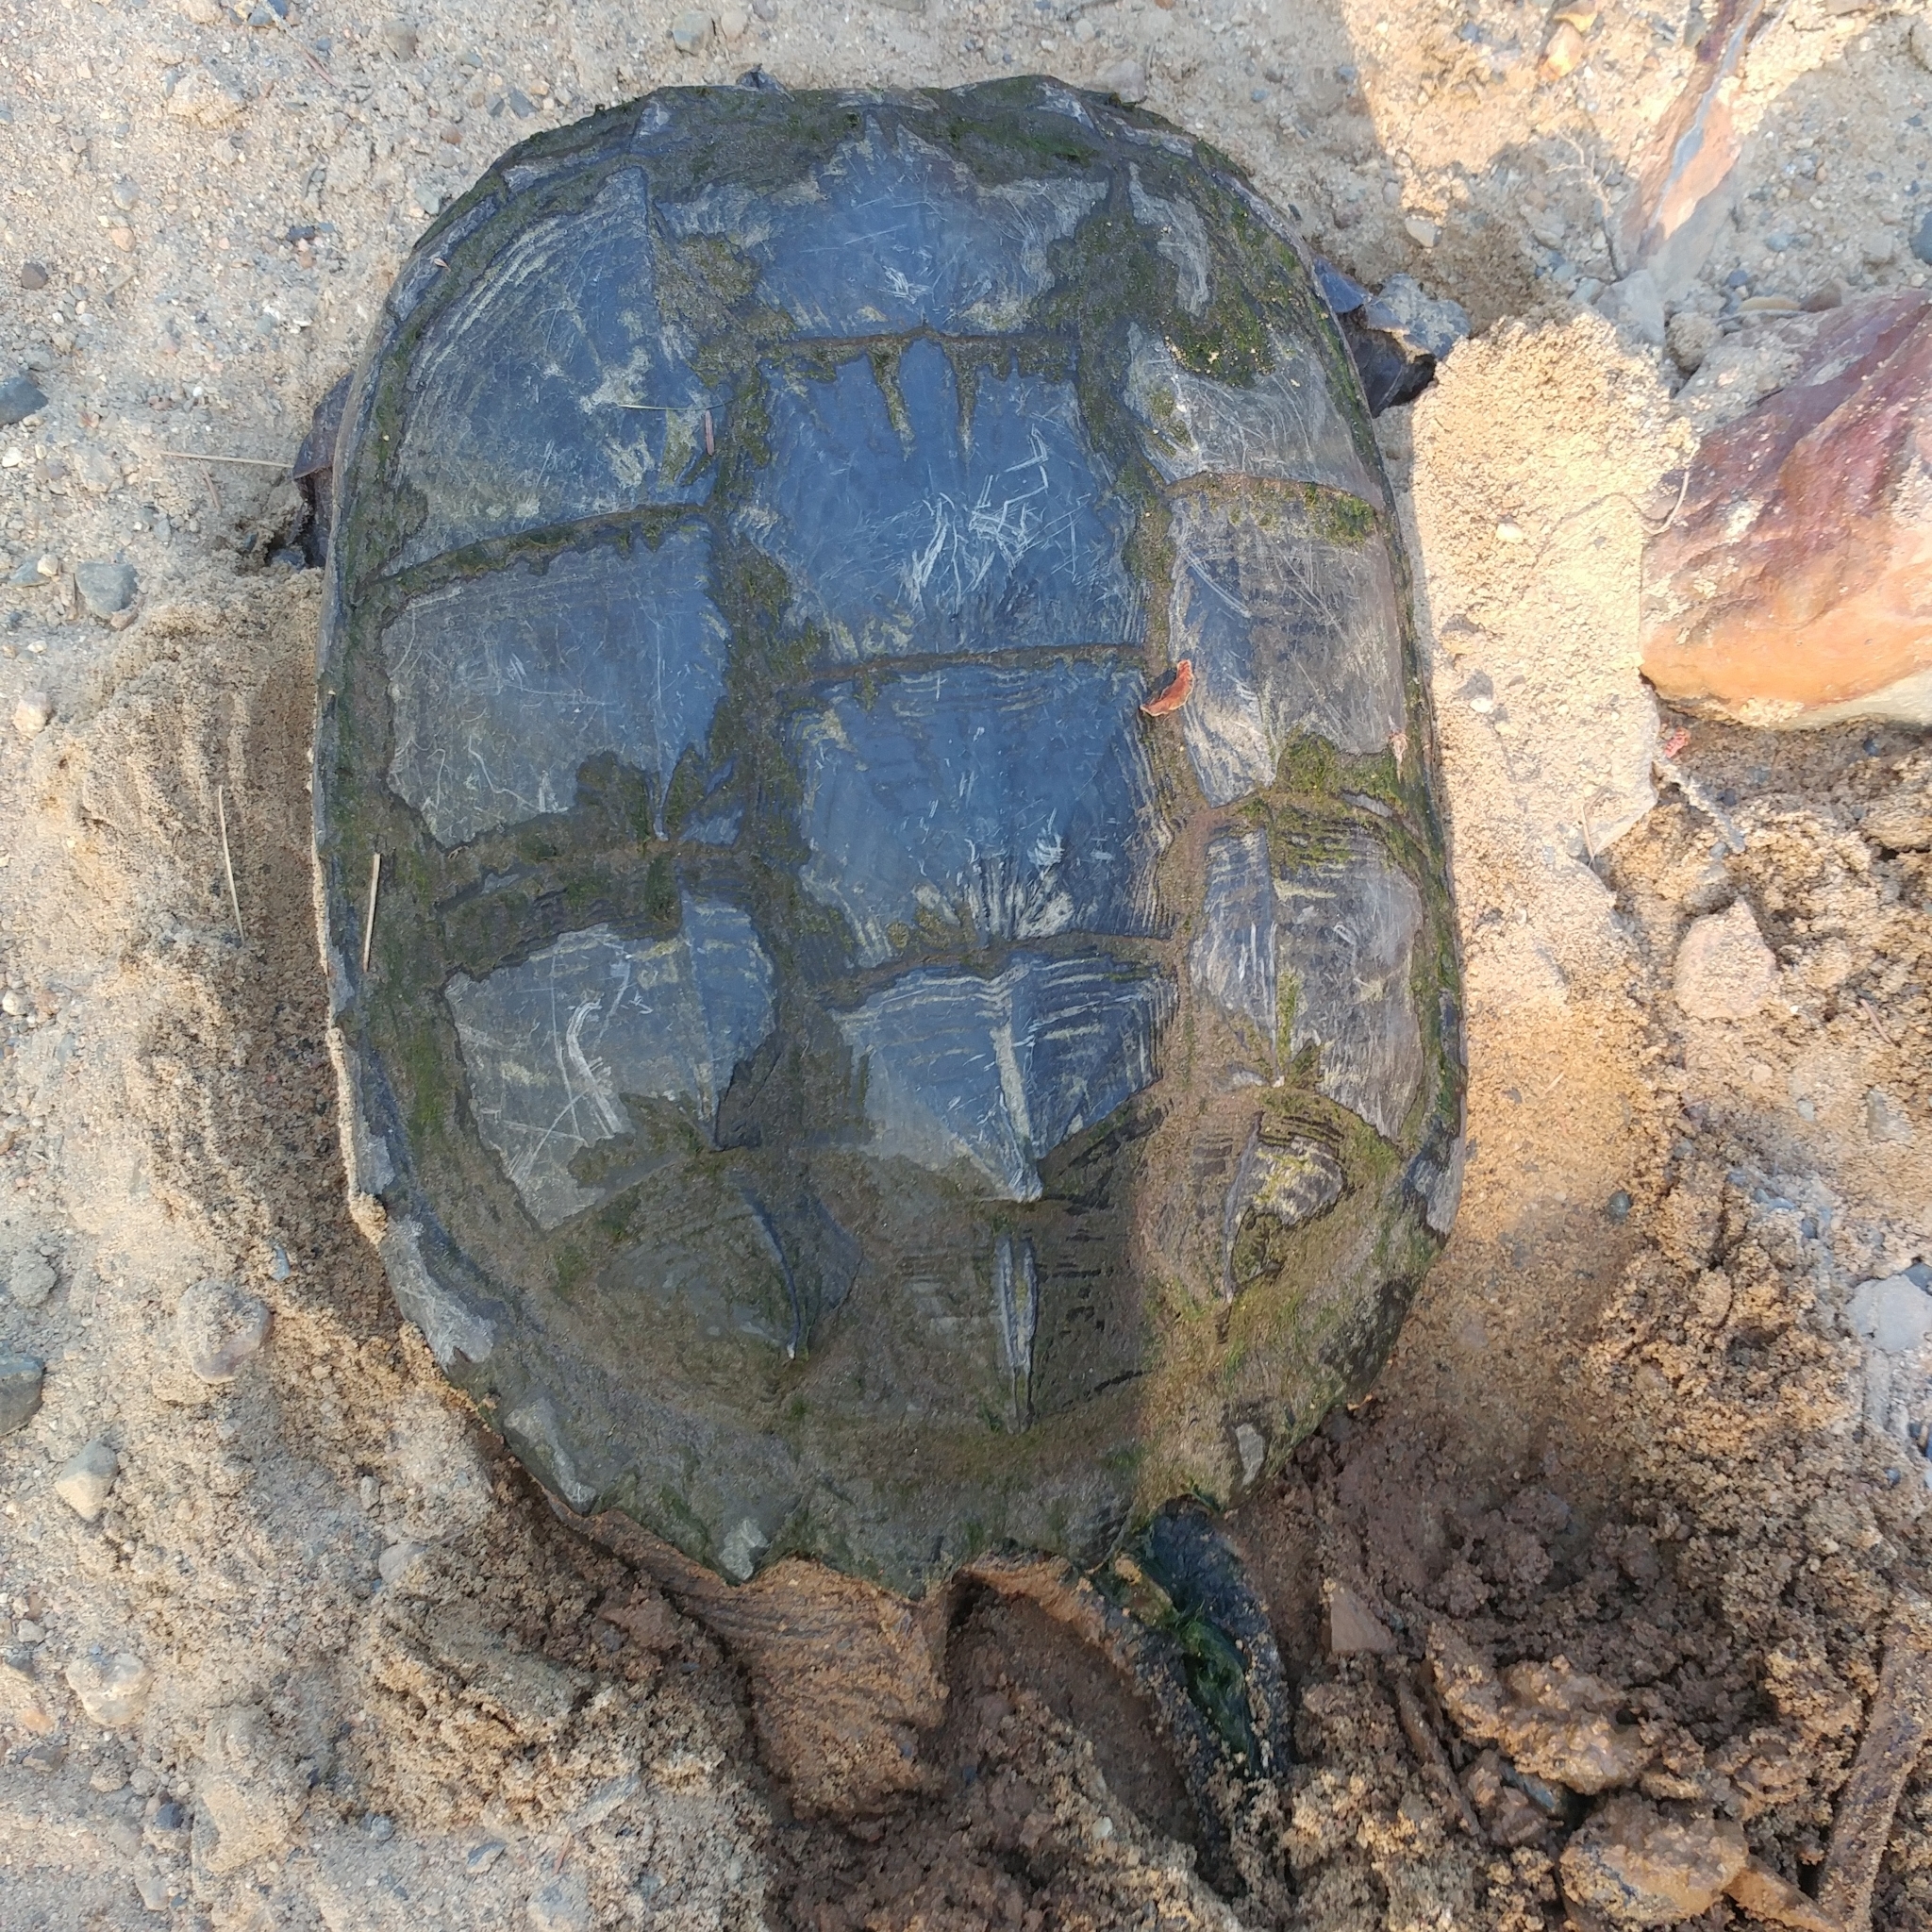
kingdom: Animalia
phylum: Chordata
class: Testudines
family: Chelydridae
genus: Chelydra
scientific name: Chelydra serpentina
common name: Common snapping turtle
